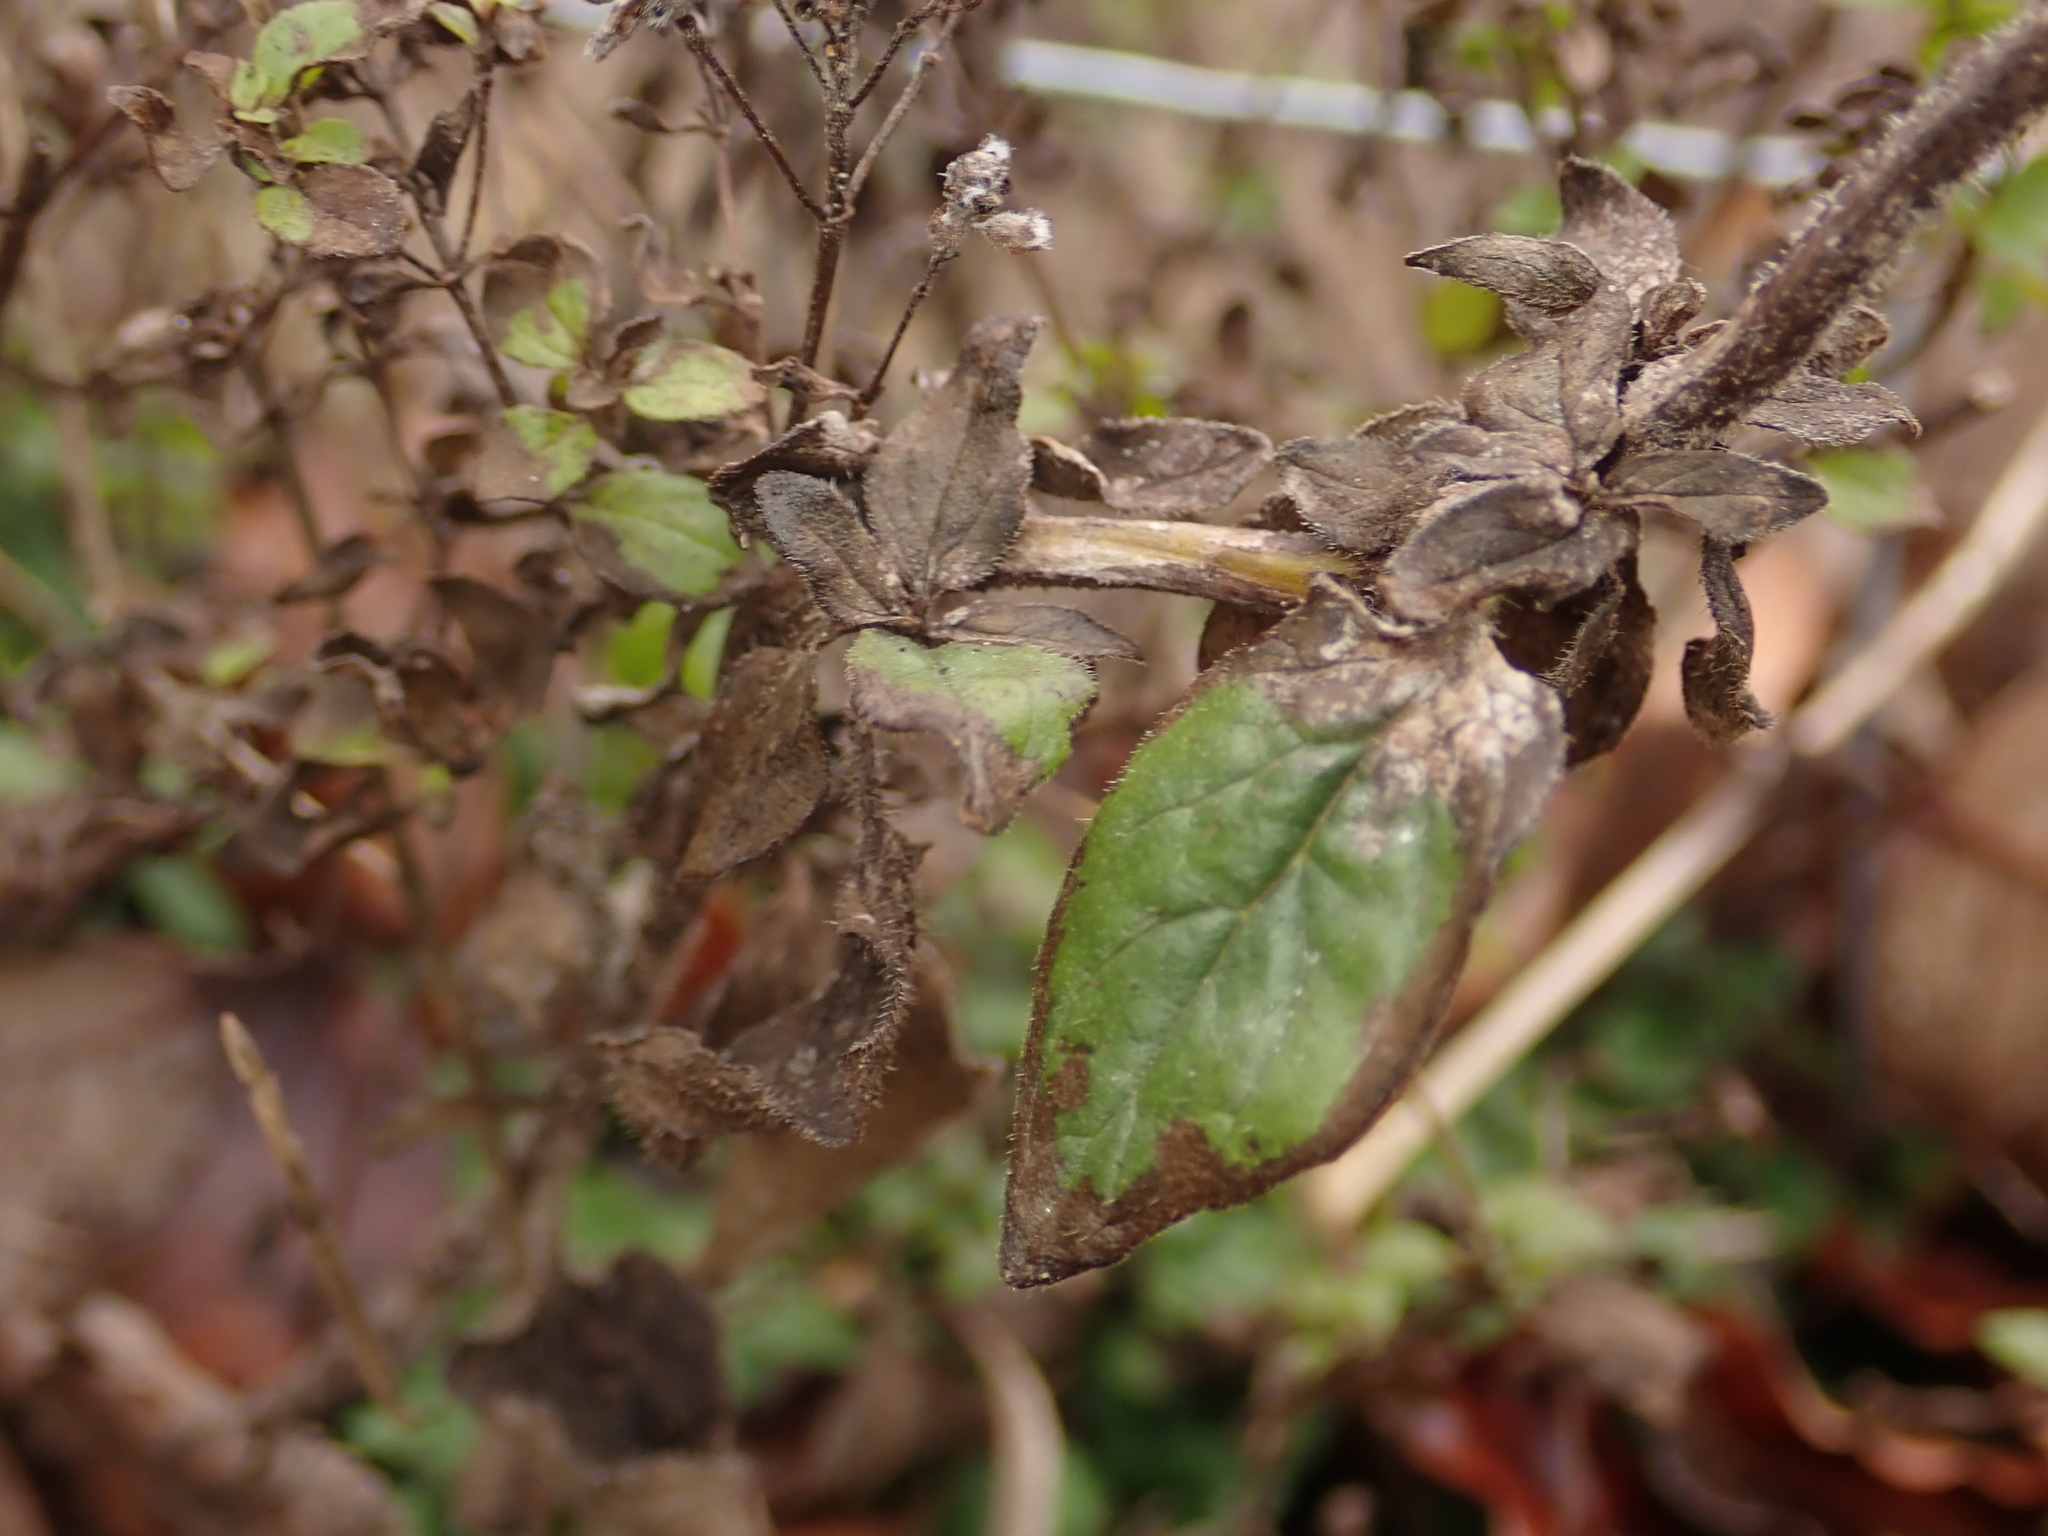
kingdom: Plantae
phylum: Tracheophyta
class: Magnoliopsida
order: Lamiales
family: Lamiaceae
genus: Origanum
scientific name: Origanum vulgare
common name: Wild marjoram
